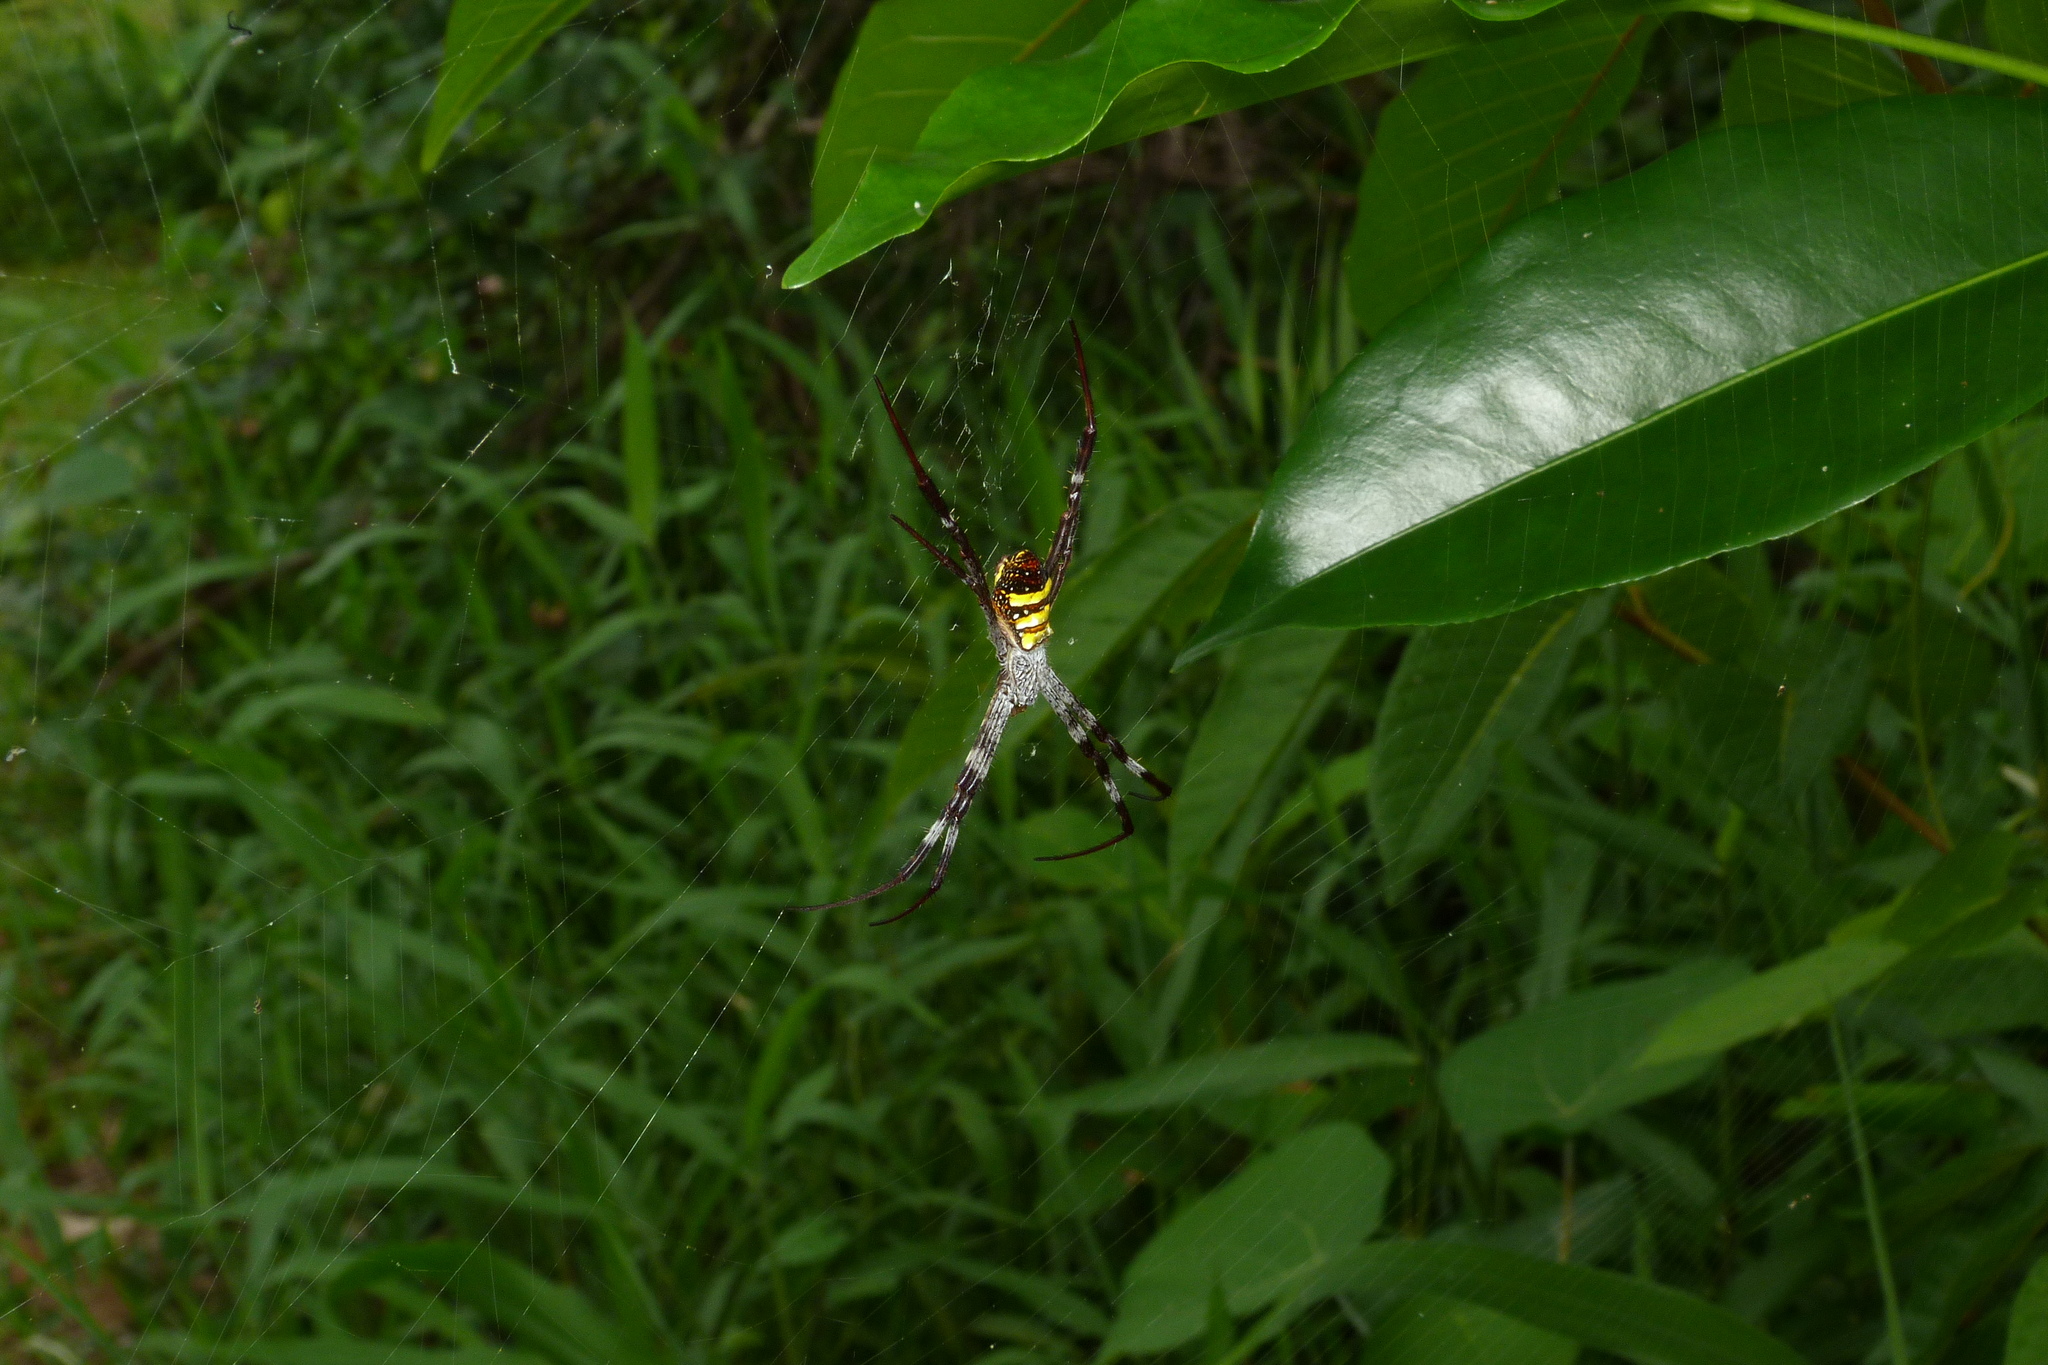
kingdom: Animalia
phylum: Arthropoda
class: Arachnida
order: Araneae
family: Araneidae
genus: Argiope
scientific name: Argiope aetherea
